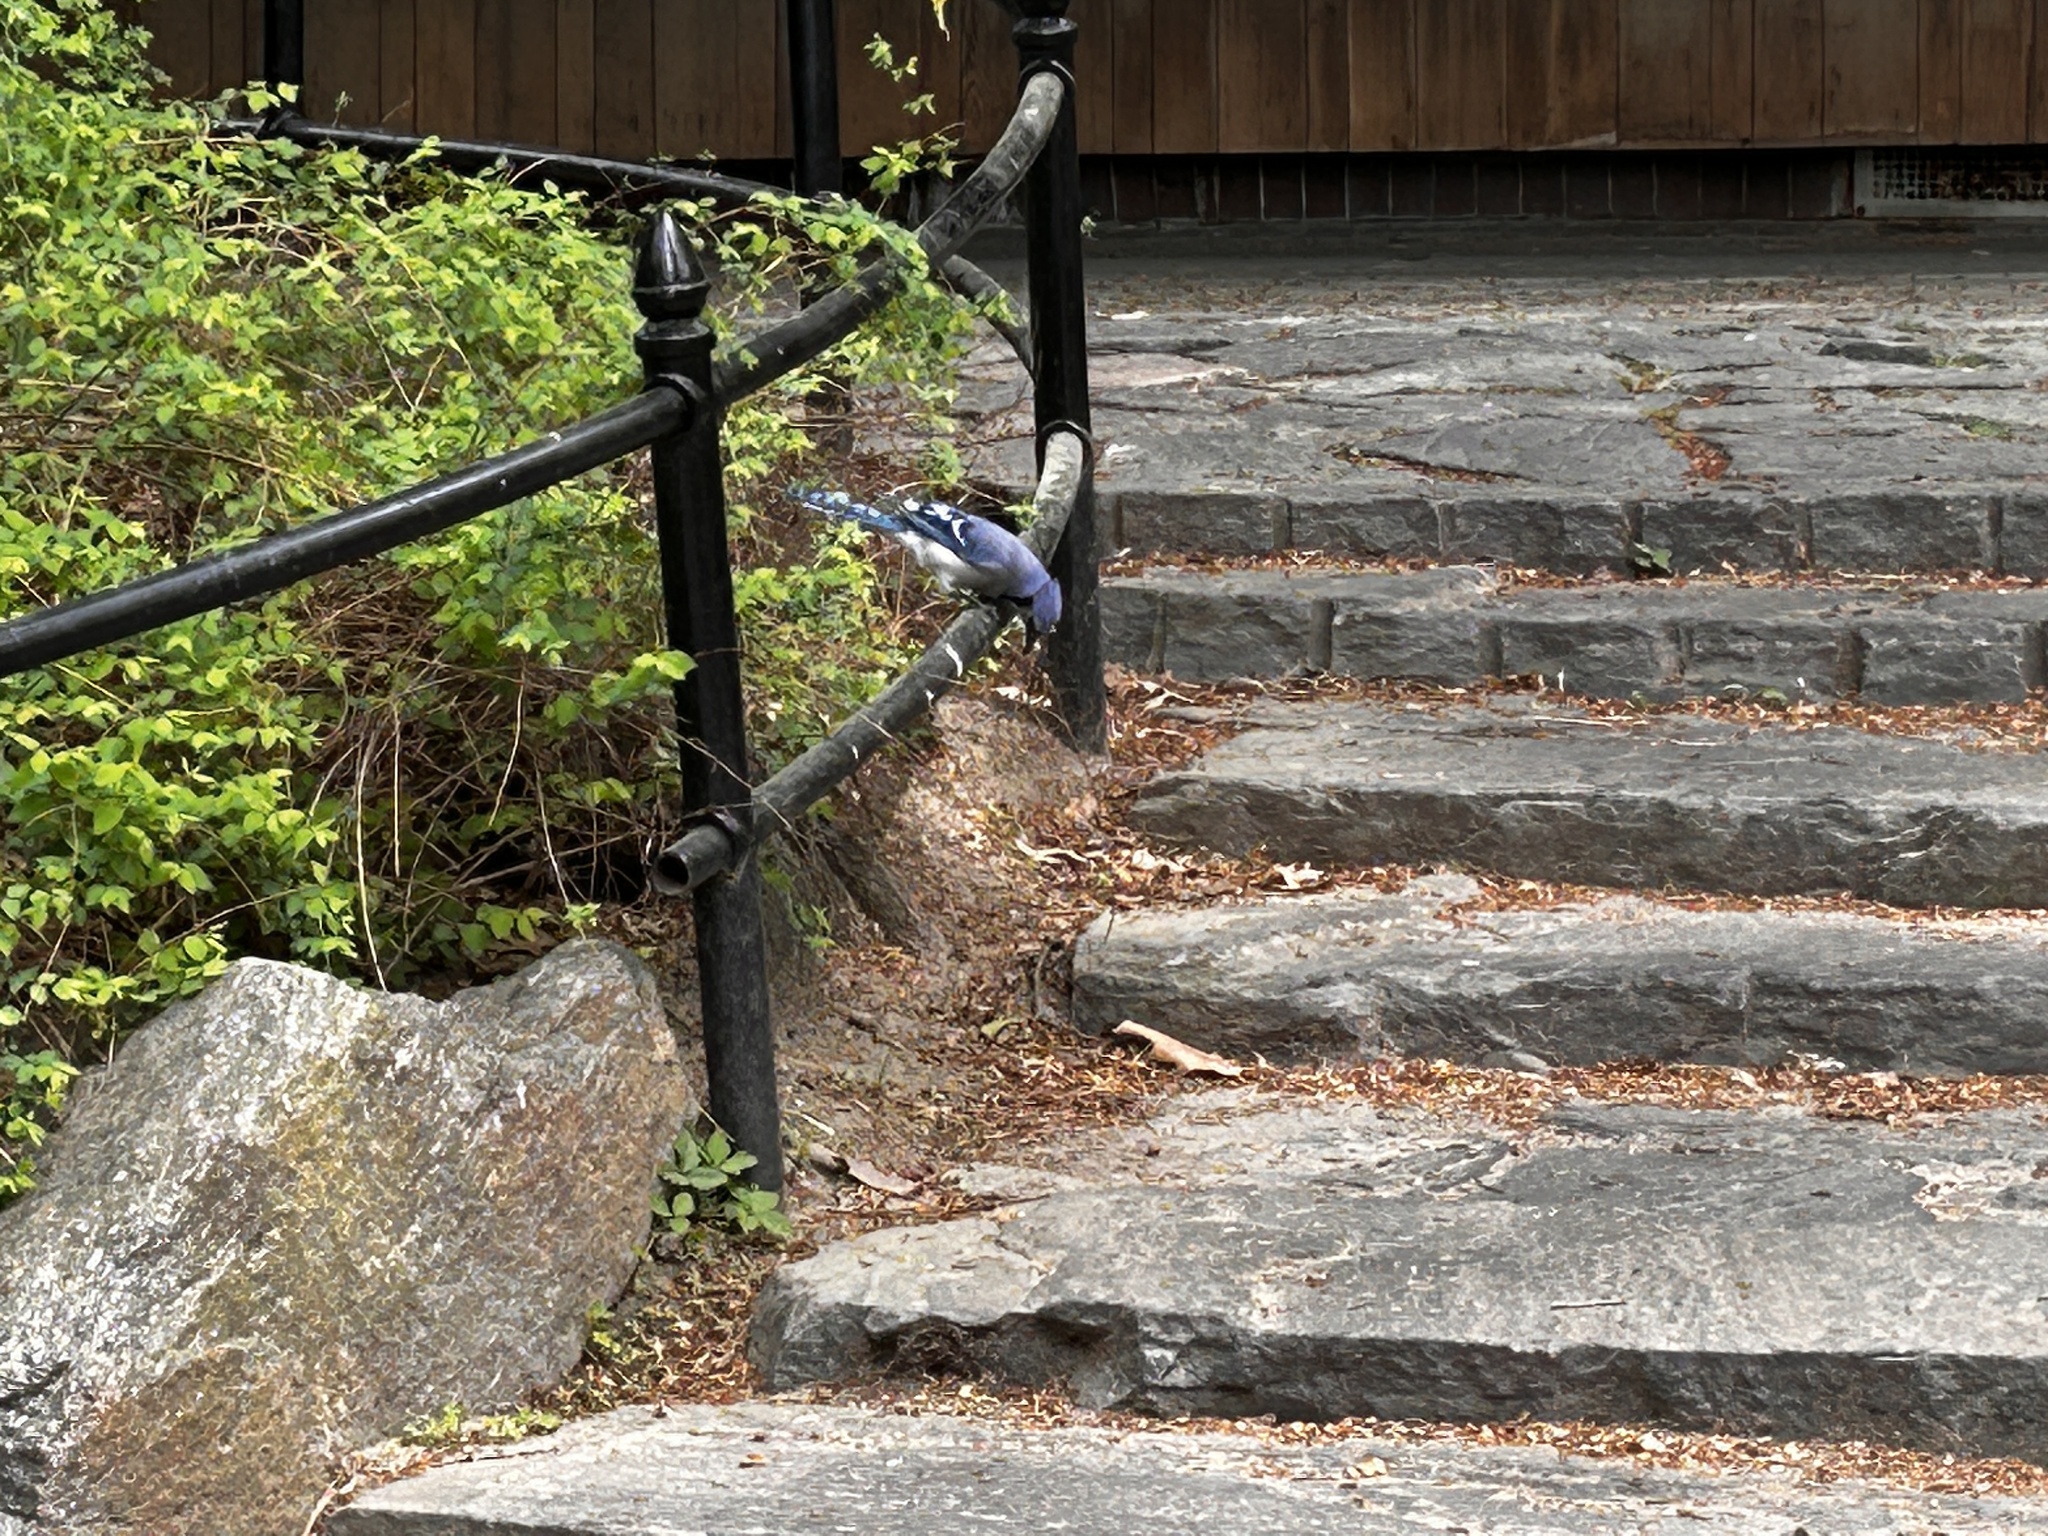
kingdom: Animalia
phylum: Chordata
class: Aves
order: Passeriformes
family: Corvidae
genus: Cyanocitta
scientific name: Cyanocitta cristata
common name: Blue jay
